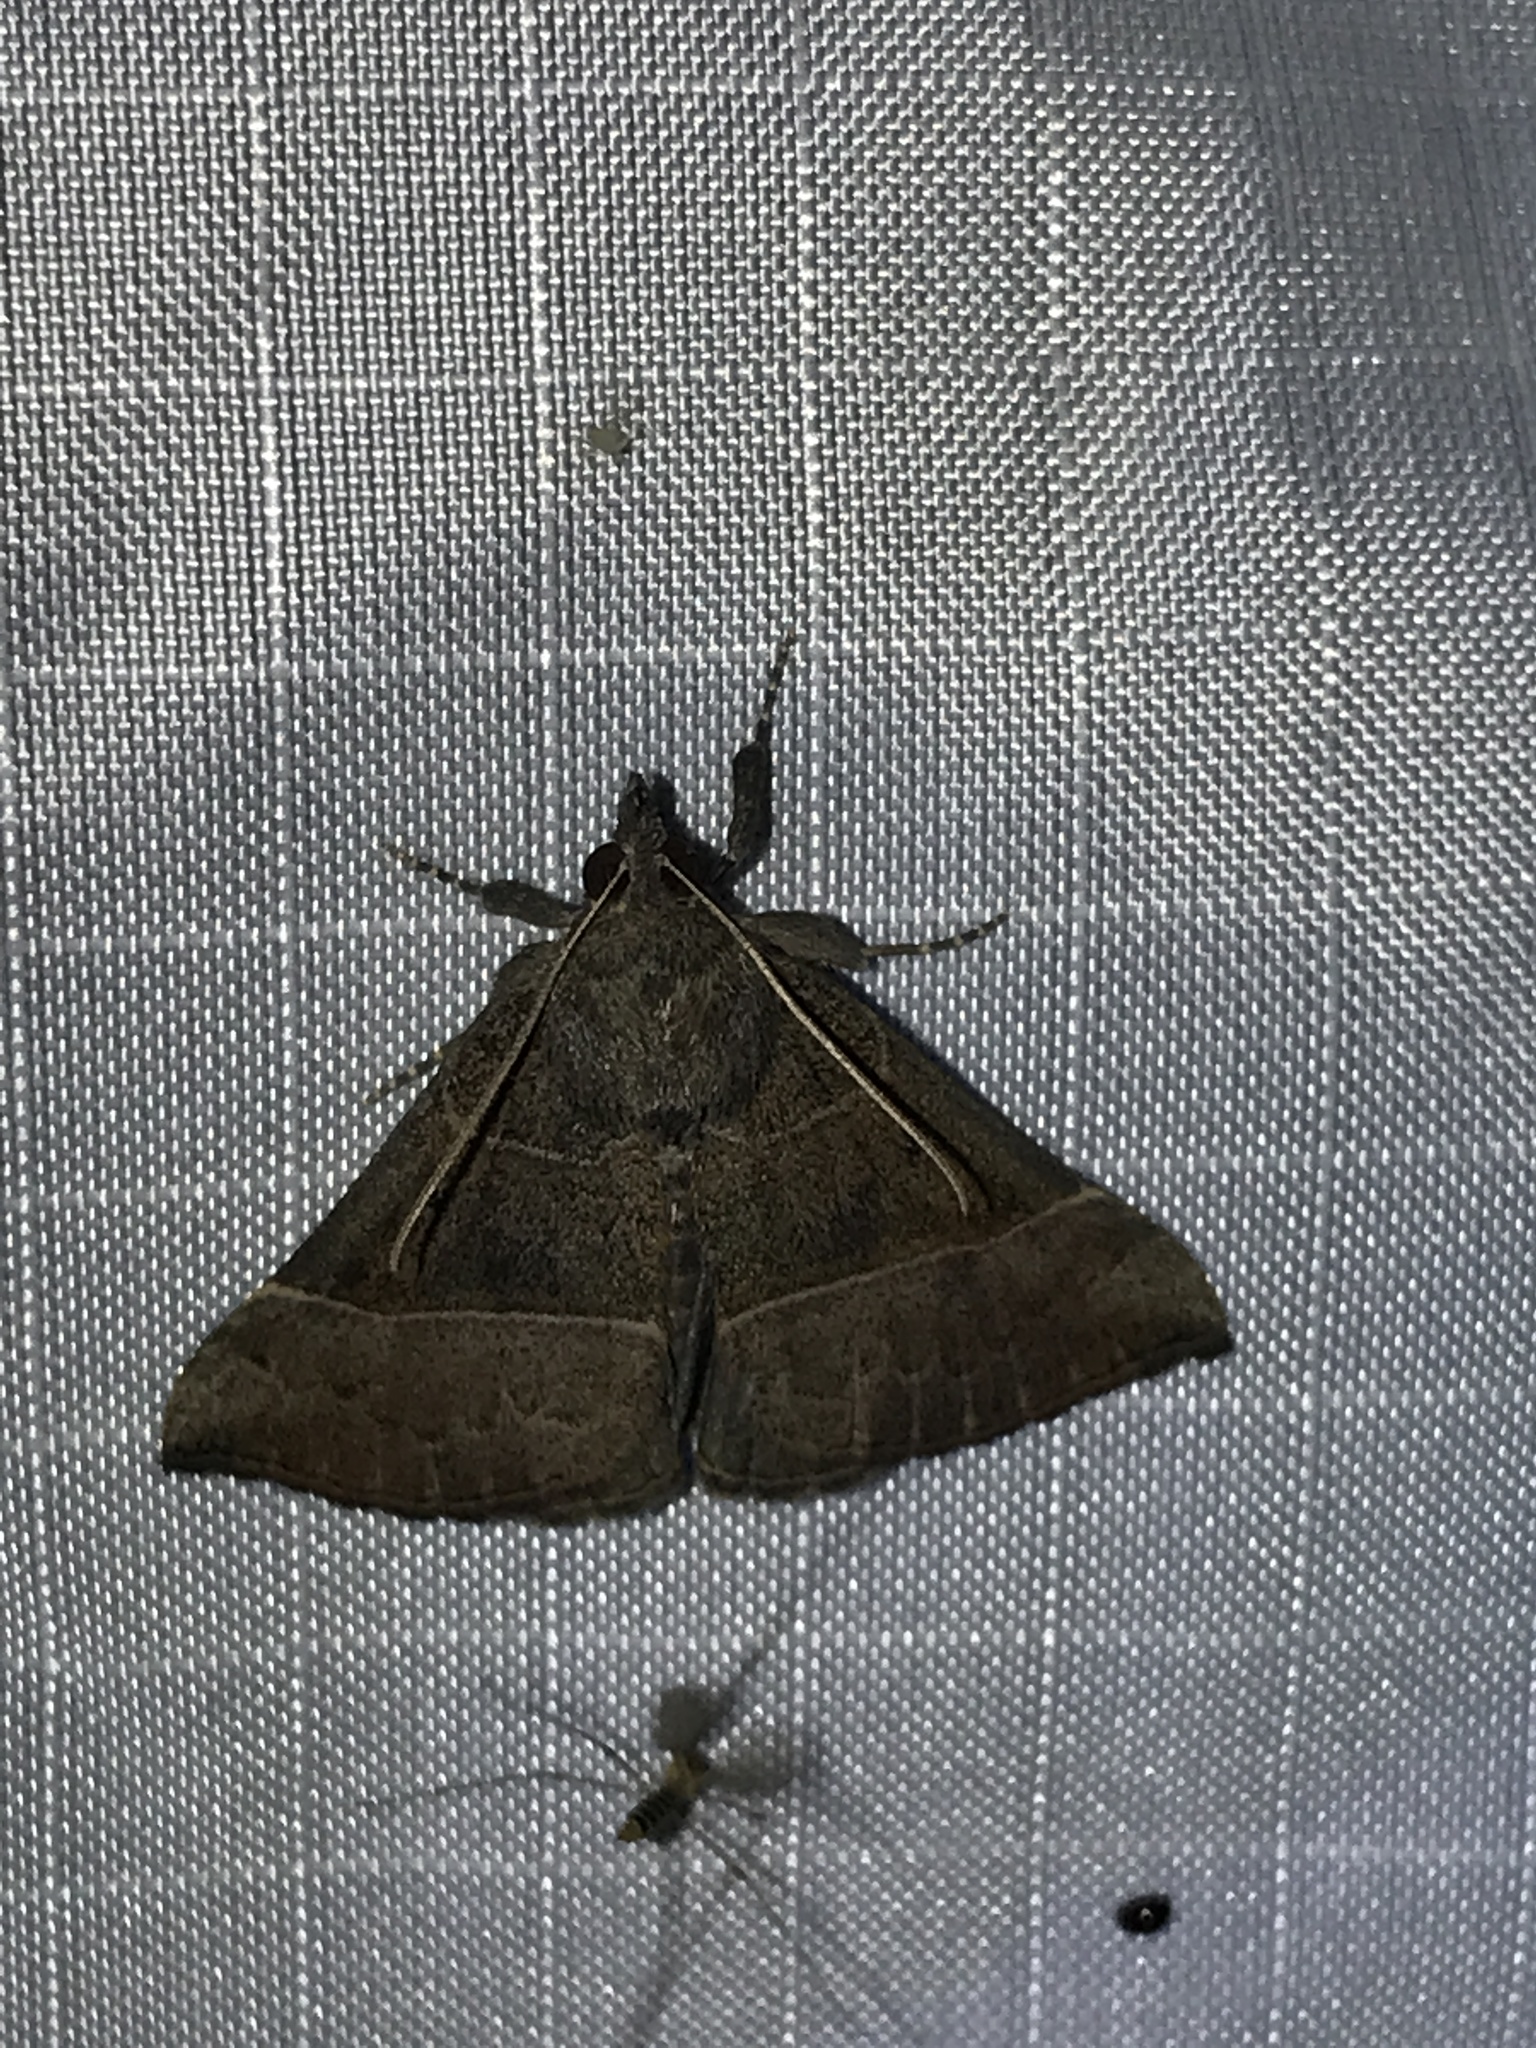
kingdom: Animalia
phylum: Arthropoda
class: Insecta
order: Lepidoptera
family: Erebidae
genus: Parallelia
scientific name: Parallelia bistriaris
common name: Maple looper moth
